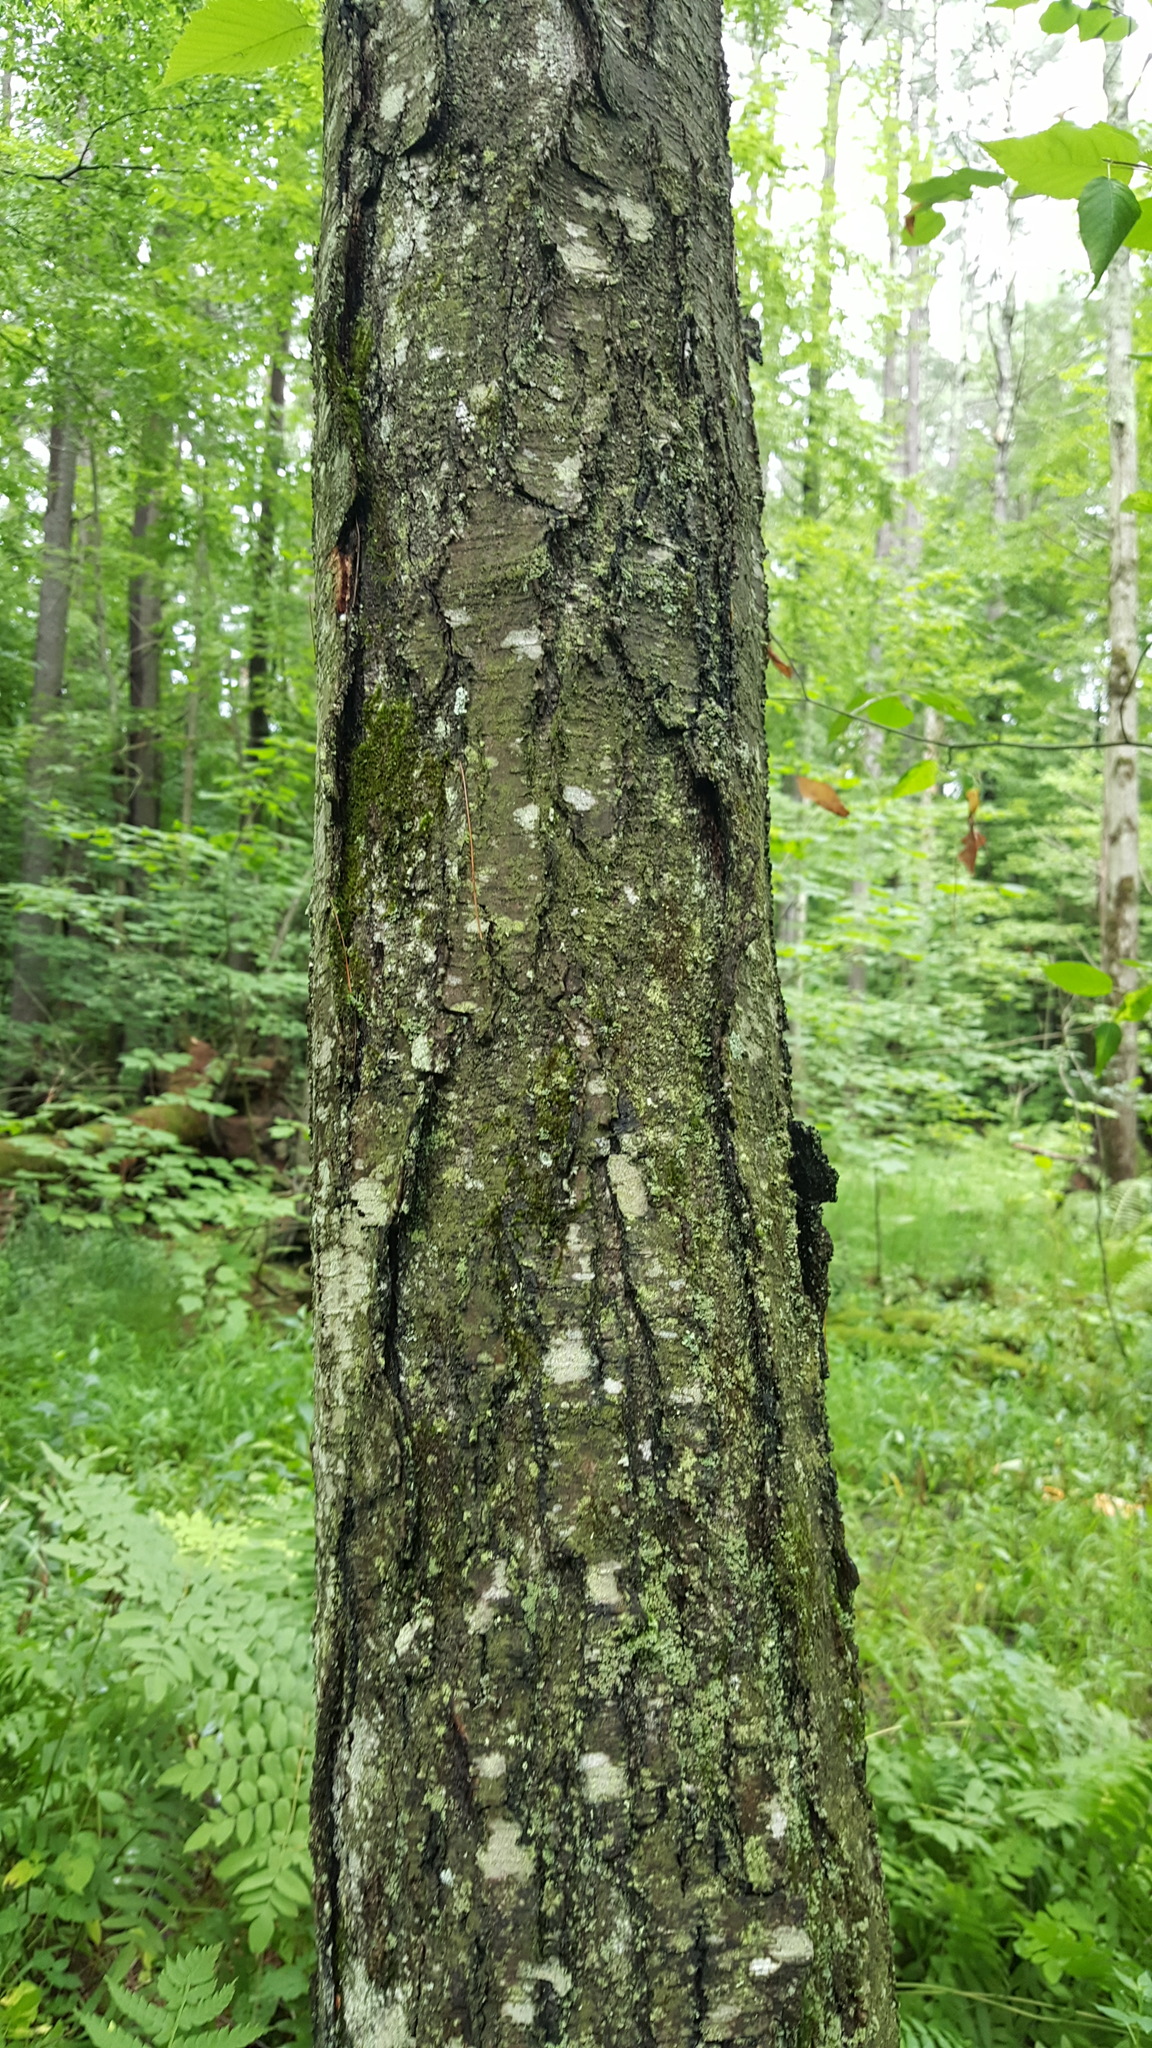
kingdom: Plantae
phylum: Tracheophyta
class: Magnoliopsida
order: Fagales
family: Betulaceae
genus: Betula
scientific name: Betula lenta
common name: Black birch
